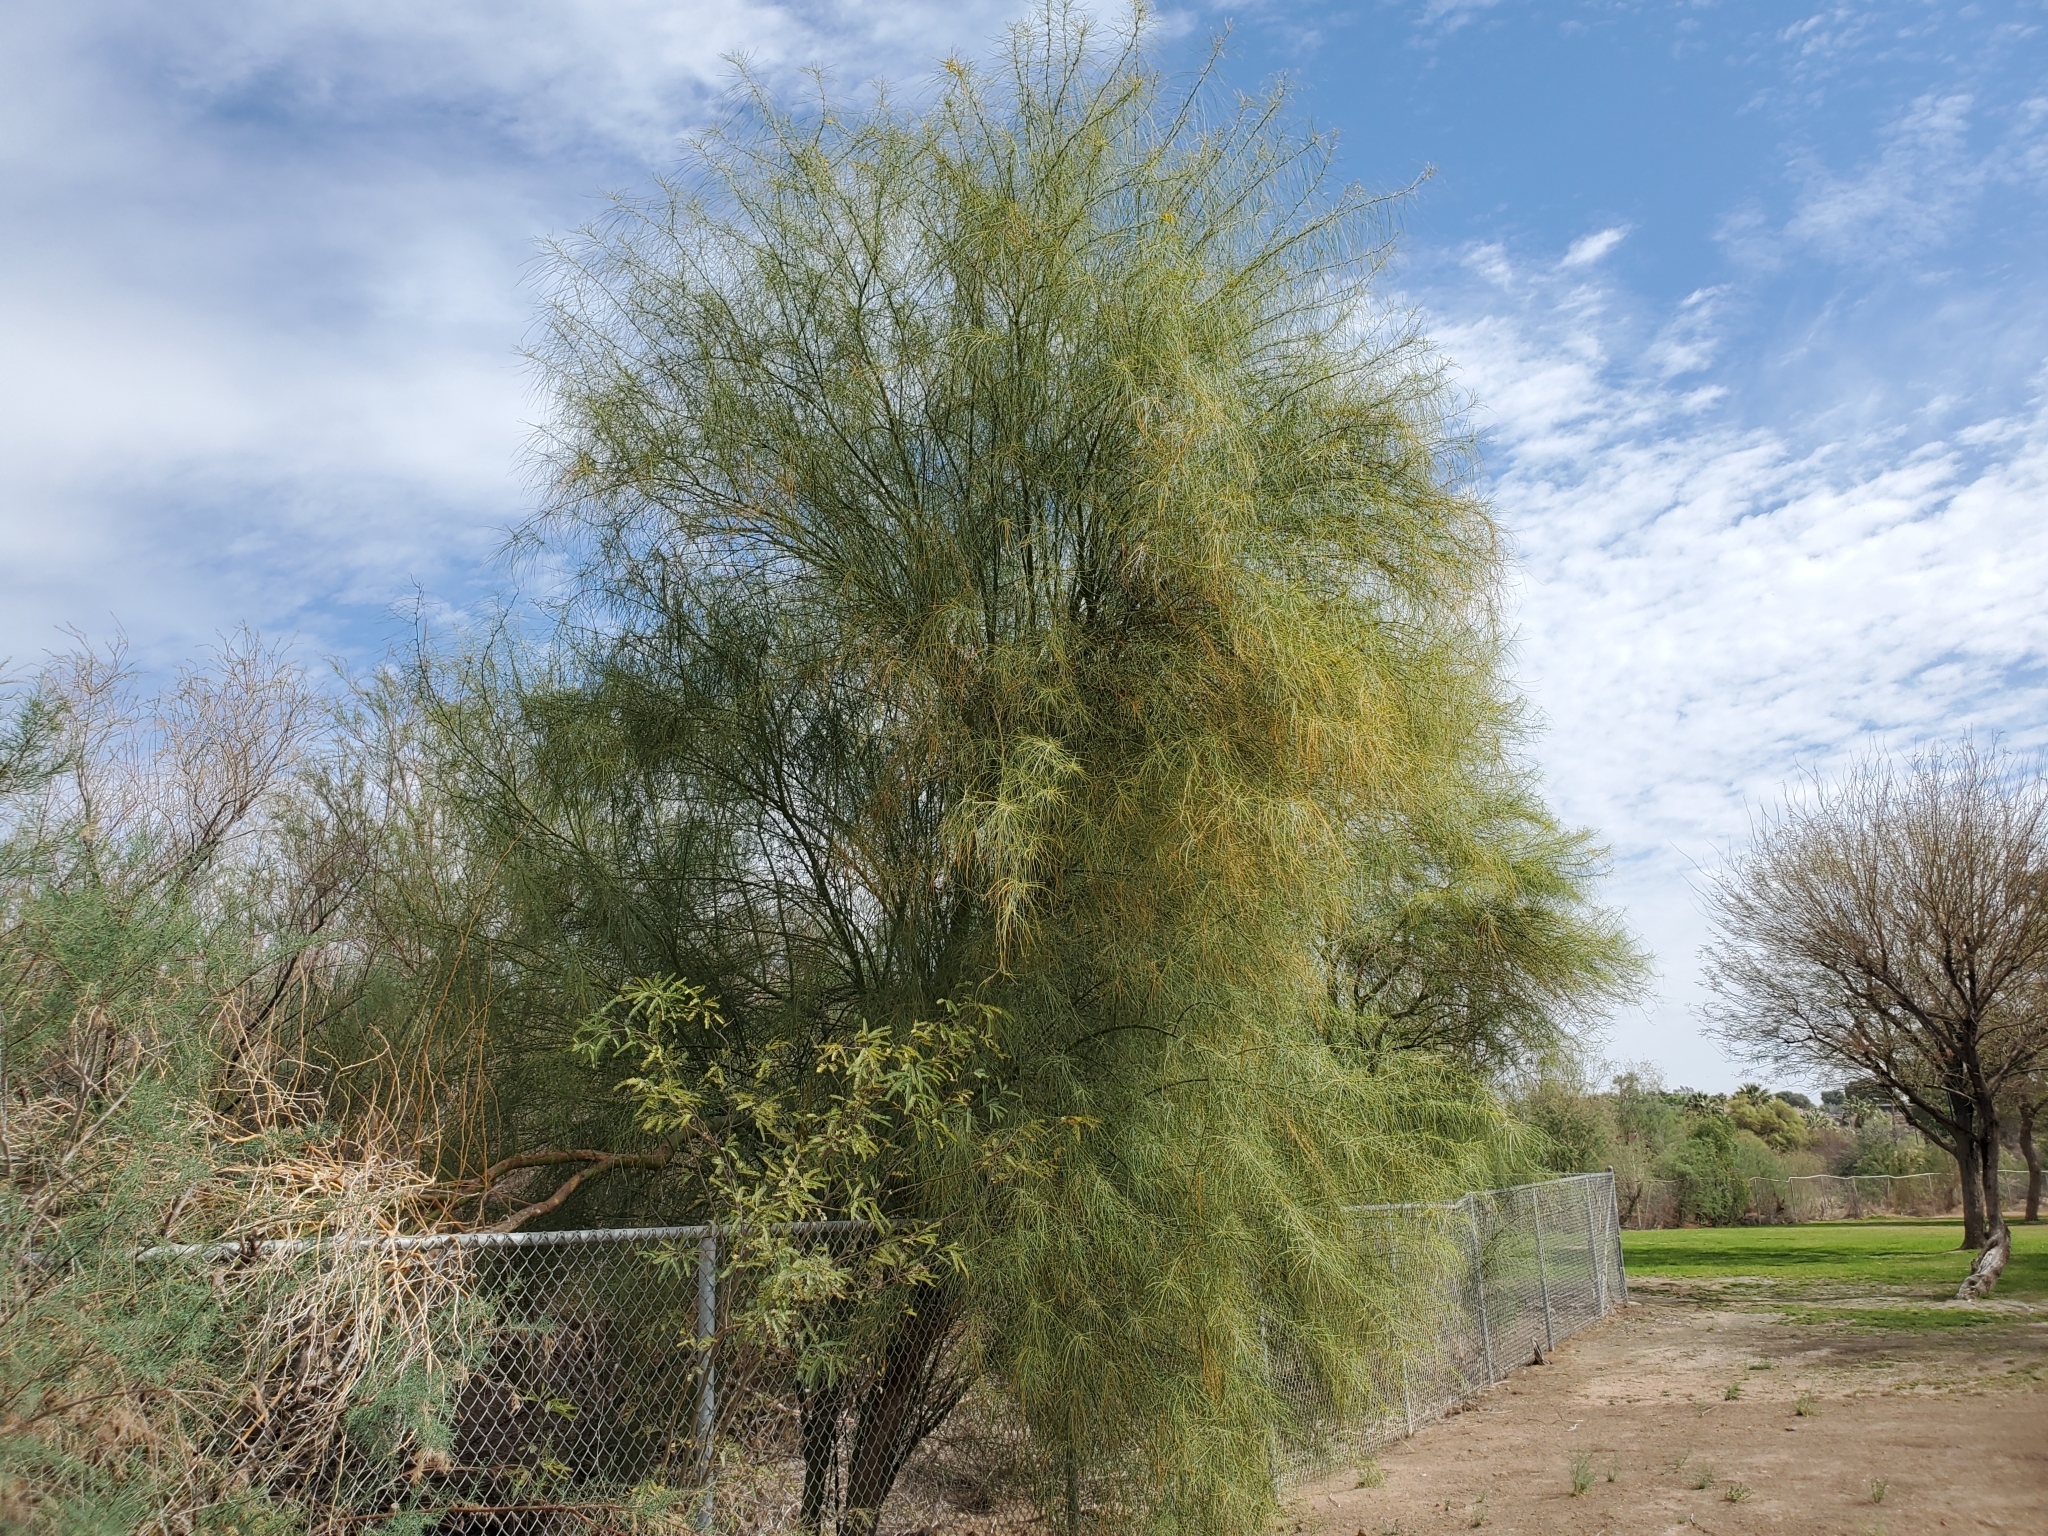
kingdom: Plantae
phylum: Tracheophyta
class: Magnoliopsida
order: Fabales
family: Fabaceae
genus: Parkinsonia
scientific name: Parkinsonia aculeata
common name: Jerusalem thorn
